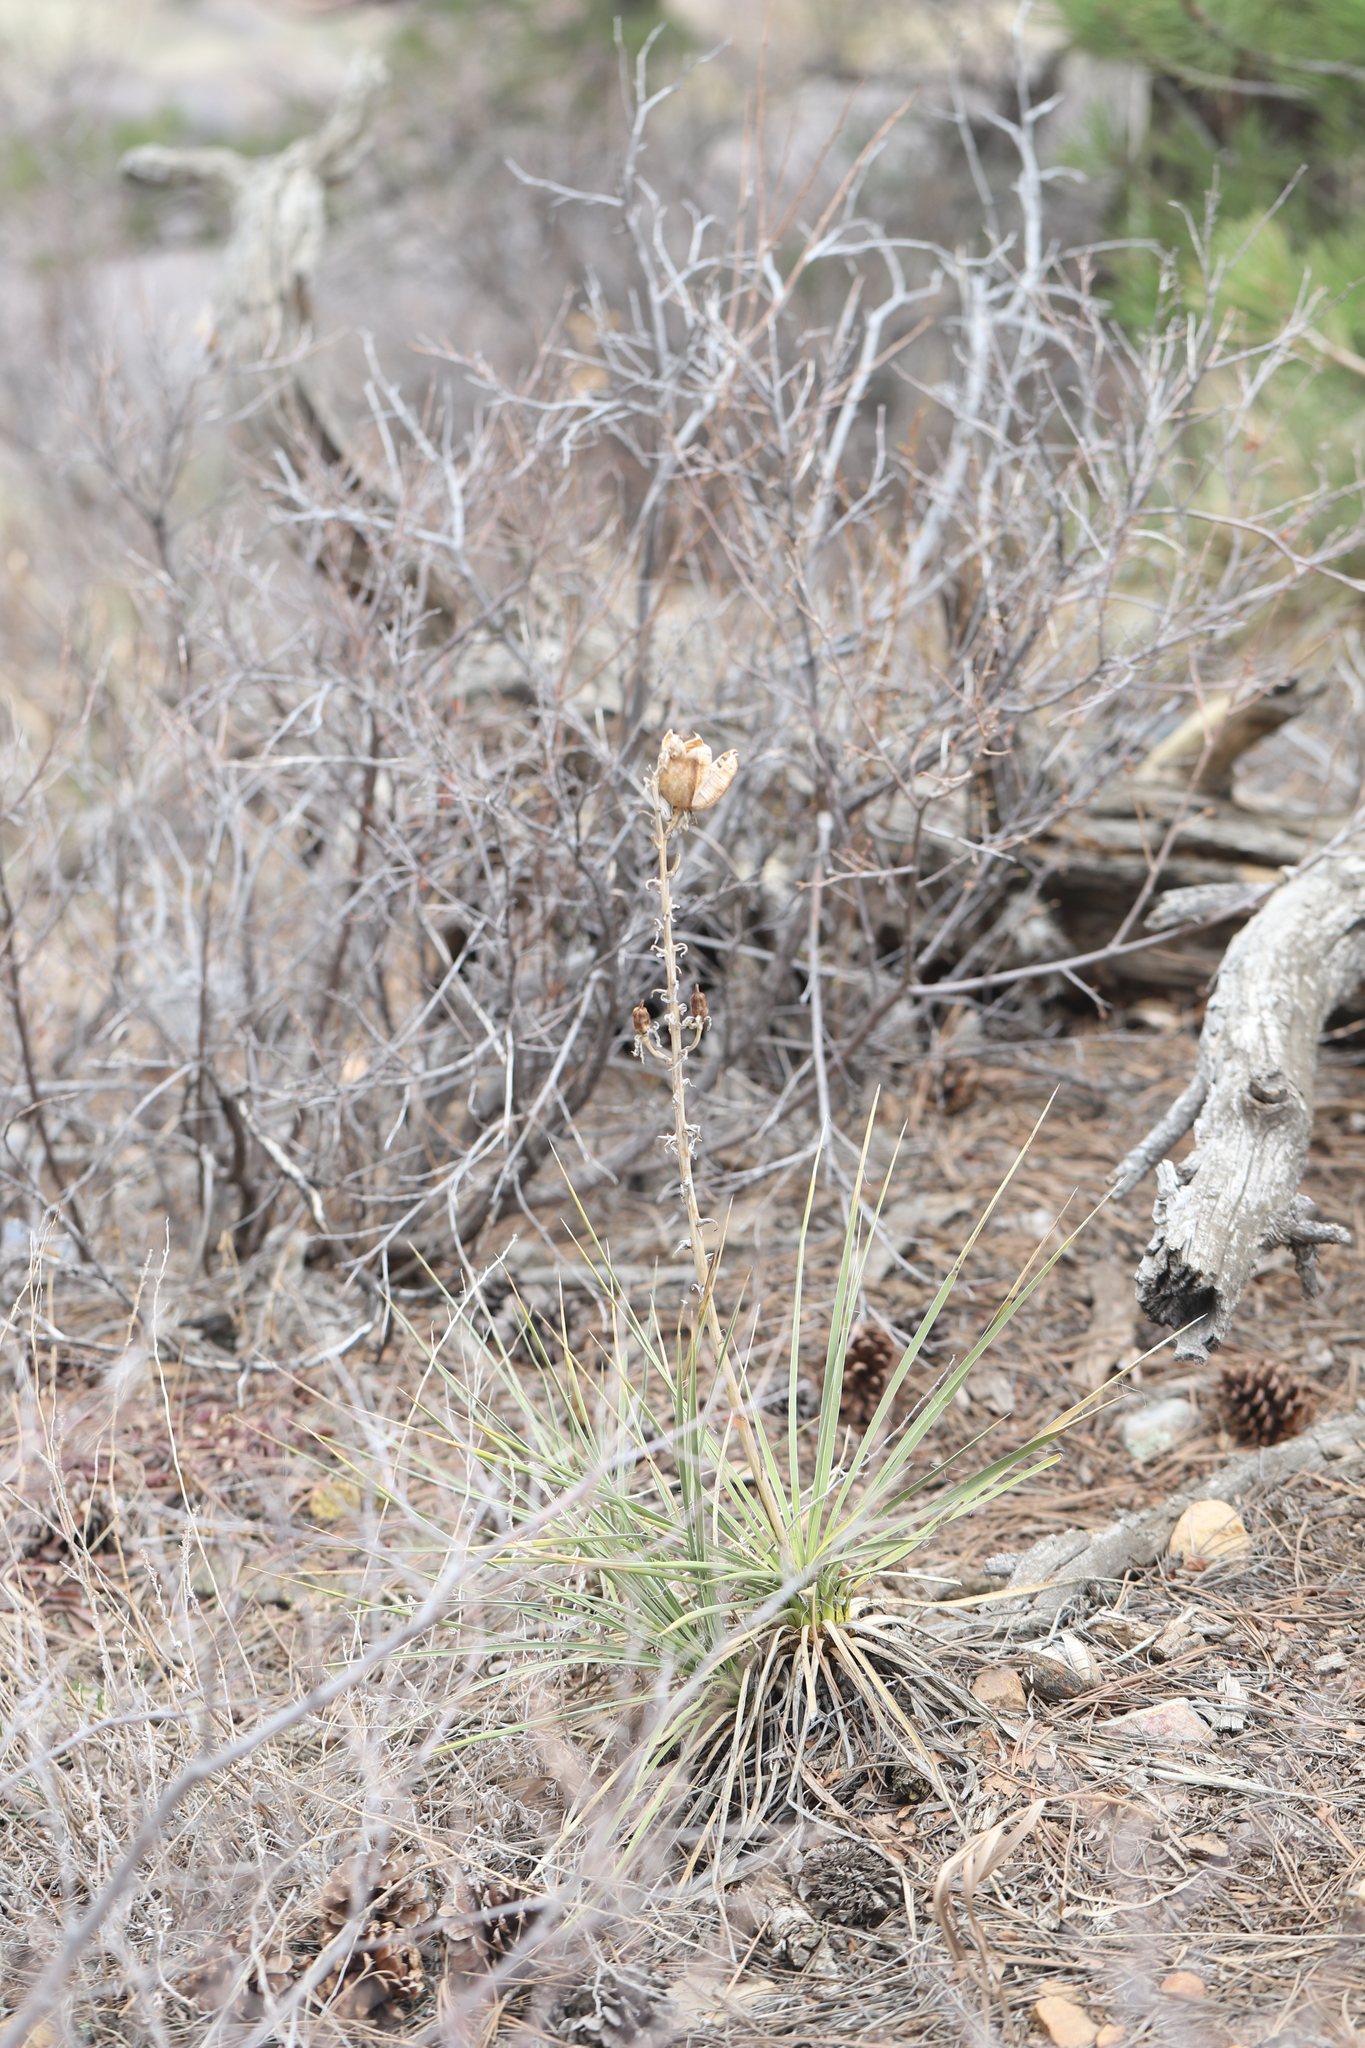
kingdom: Plantae
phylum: Tracheophyta
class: Liliopsida
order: Asparagales
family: Asparagaceae
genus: Yucca
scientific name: Yucca glauca
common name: Great plains yucca
